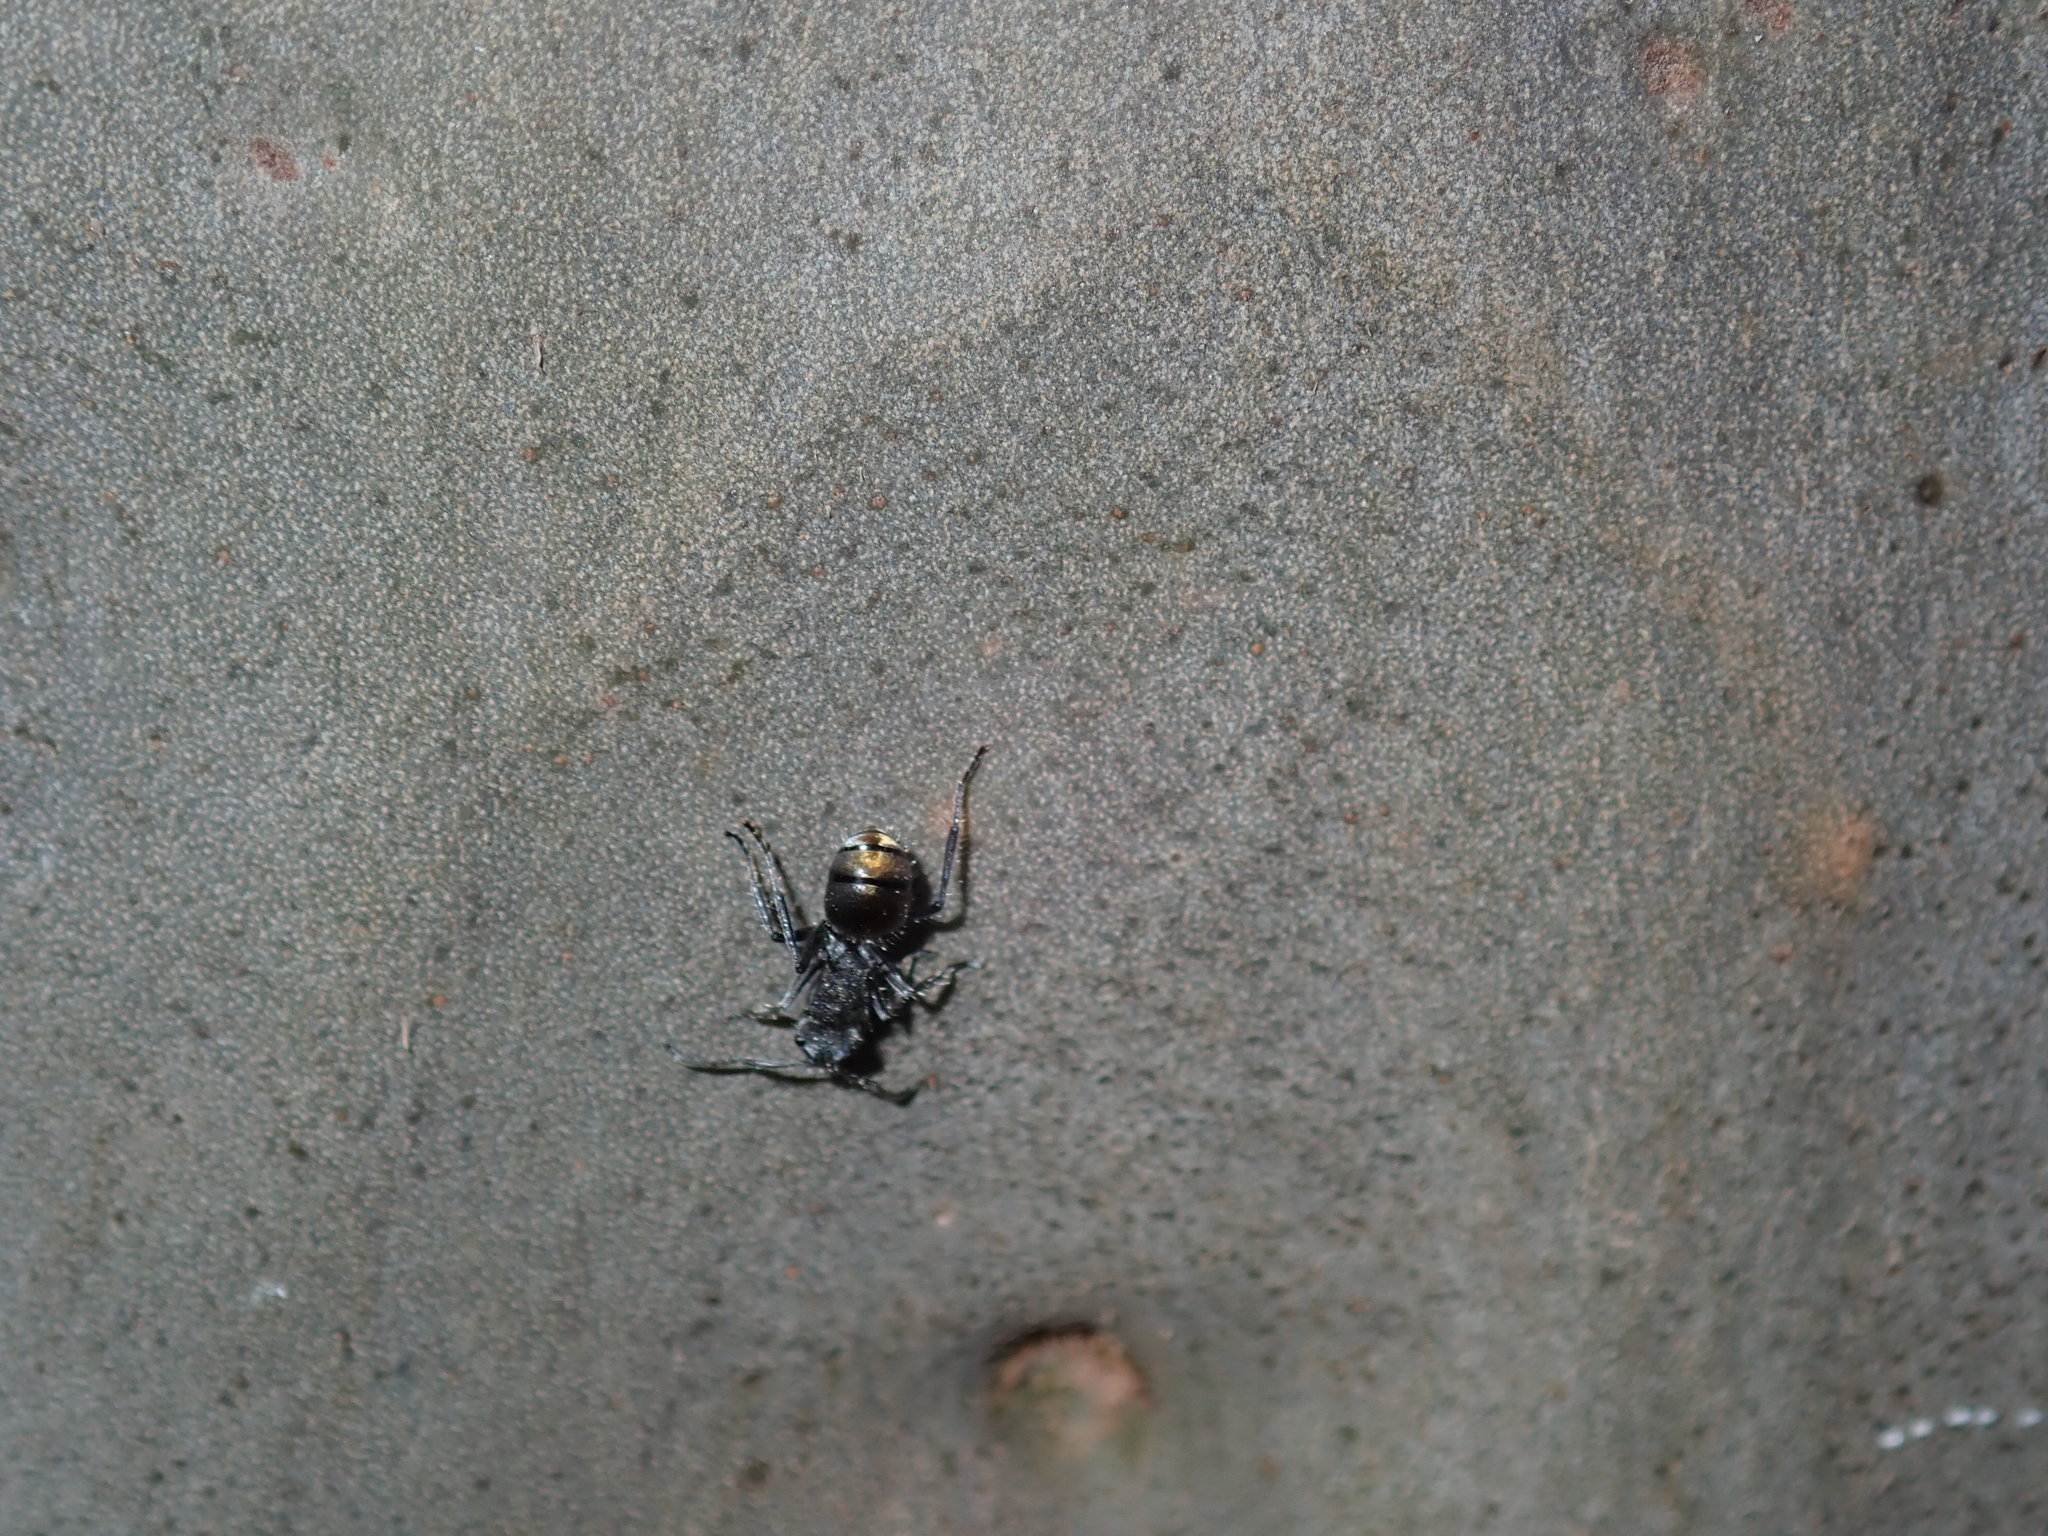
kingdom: Animalia
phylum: Arthropoda
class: Insecta
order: Hymenoptera
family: Formicidae
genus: Polyrhachis
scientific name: Polyrhachis vermiculosa
